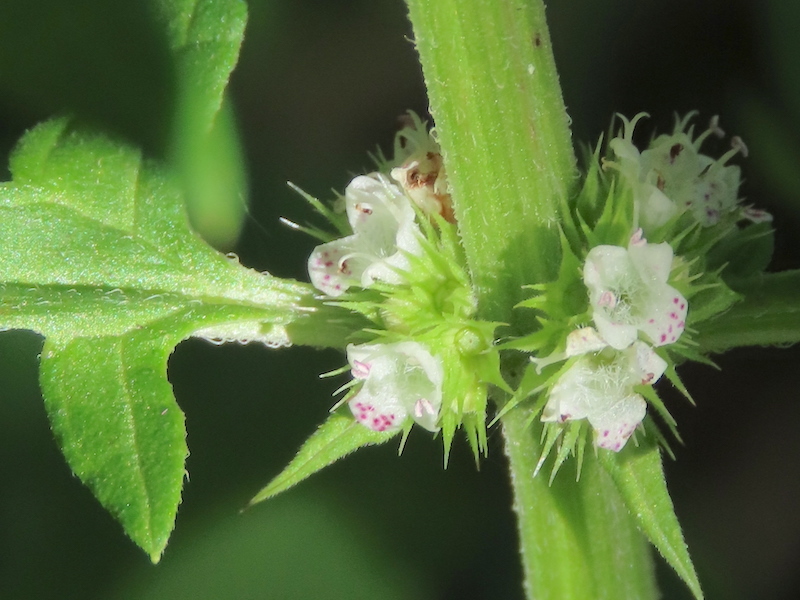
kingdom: Plantae
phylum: Tracheophyta
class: Magnoliopsida
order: Lamiales
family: Lamiaceae
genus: Lycopus
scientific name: Lycopus europaeus
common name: European bugleweed
